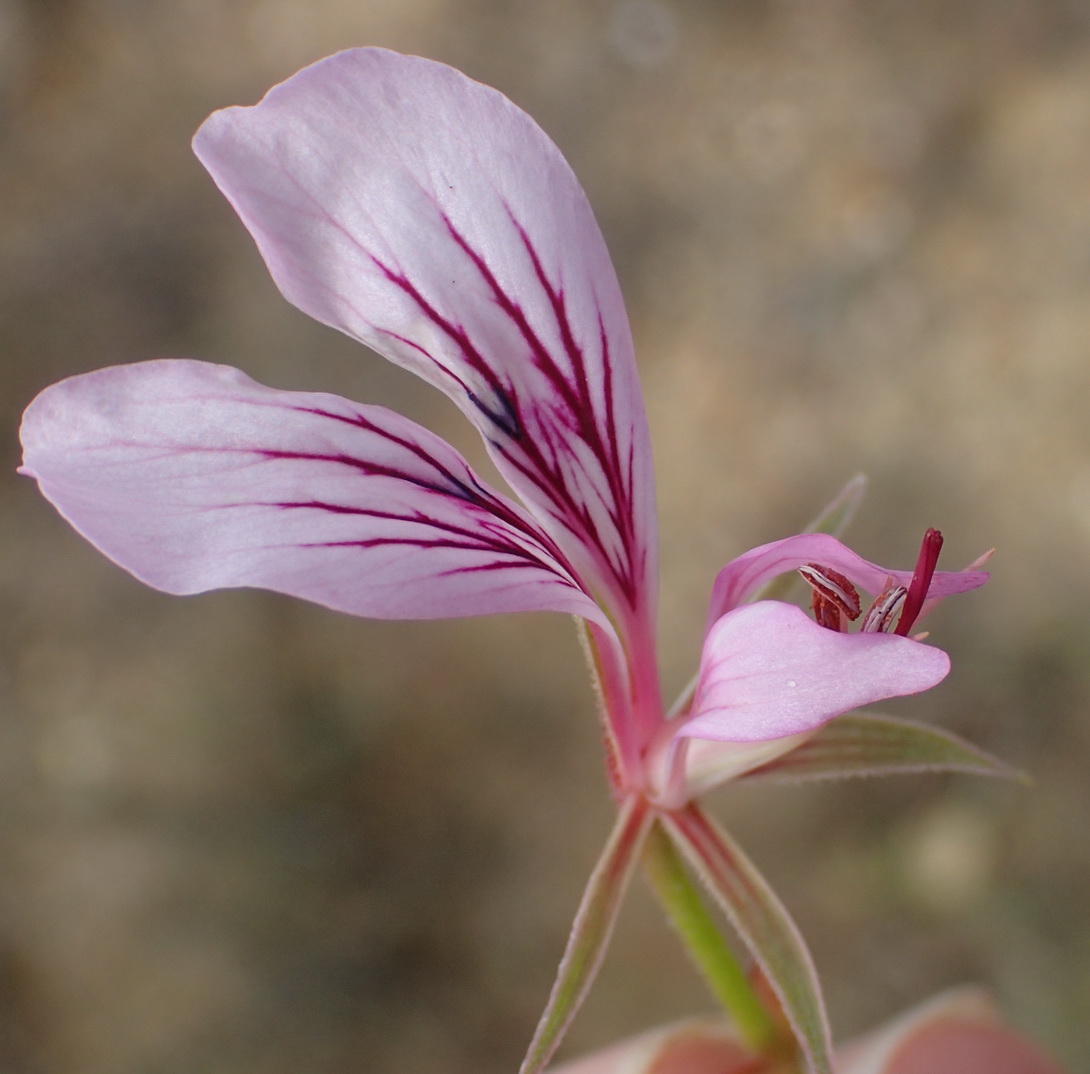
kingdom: Plantae
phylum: Tracheophyta
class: Magnoliopsida
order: Geraniales
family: Geraniaceae
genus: Pelargonium
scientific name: Pelargonium caucalifolium
